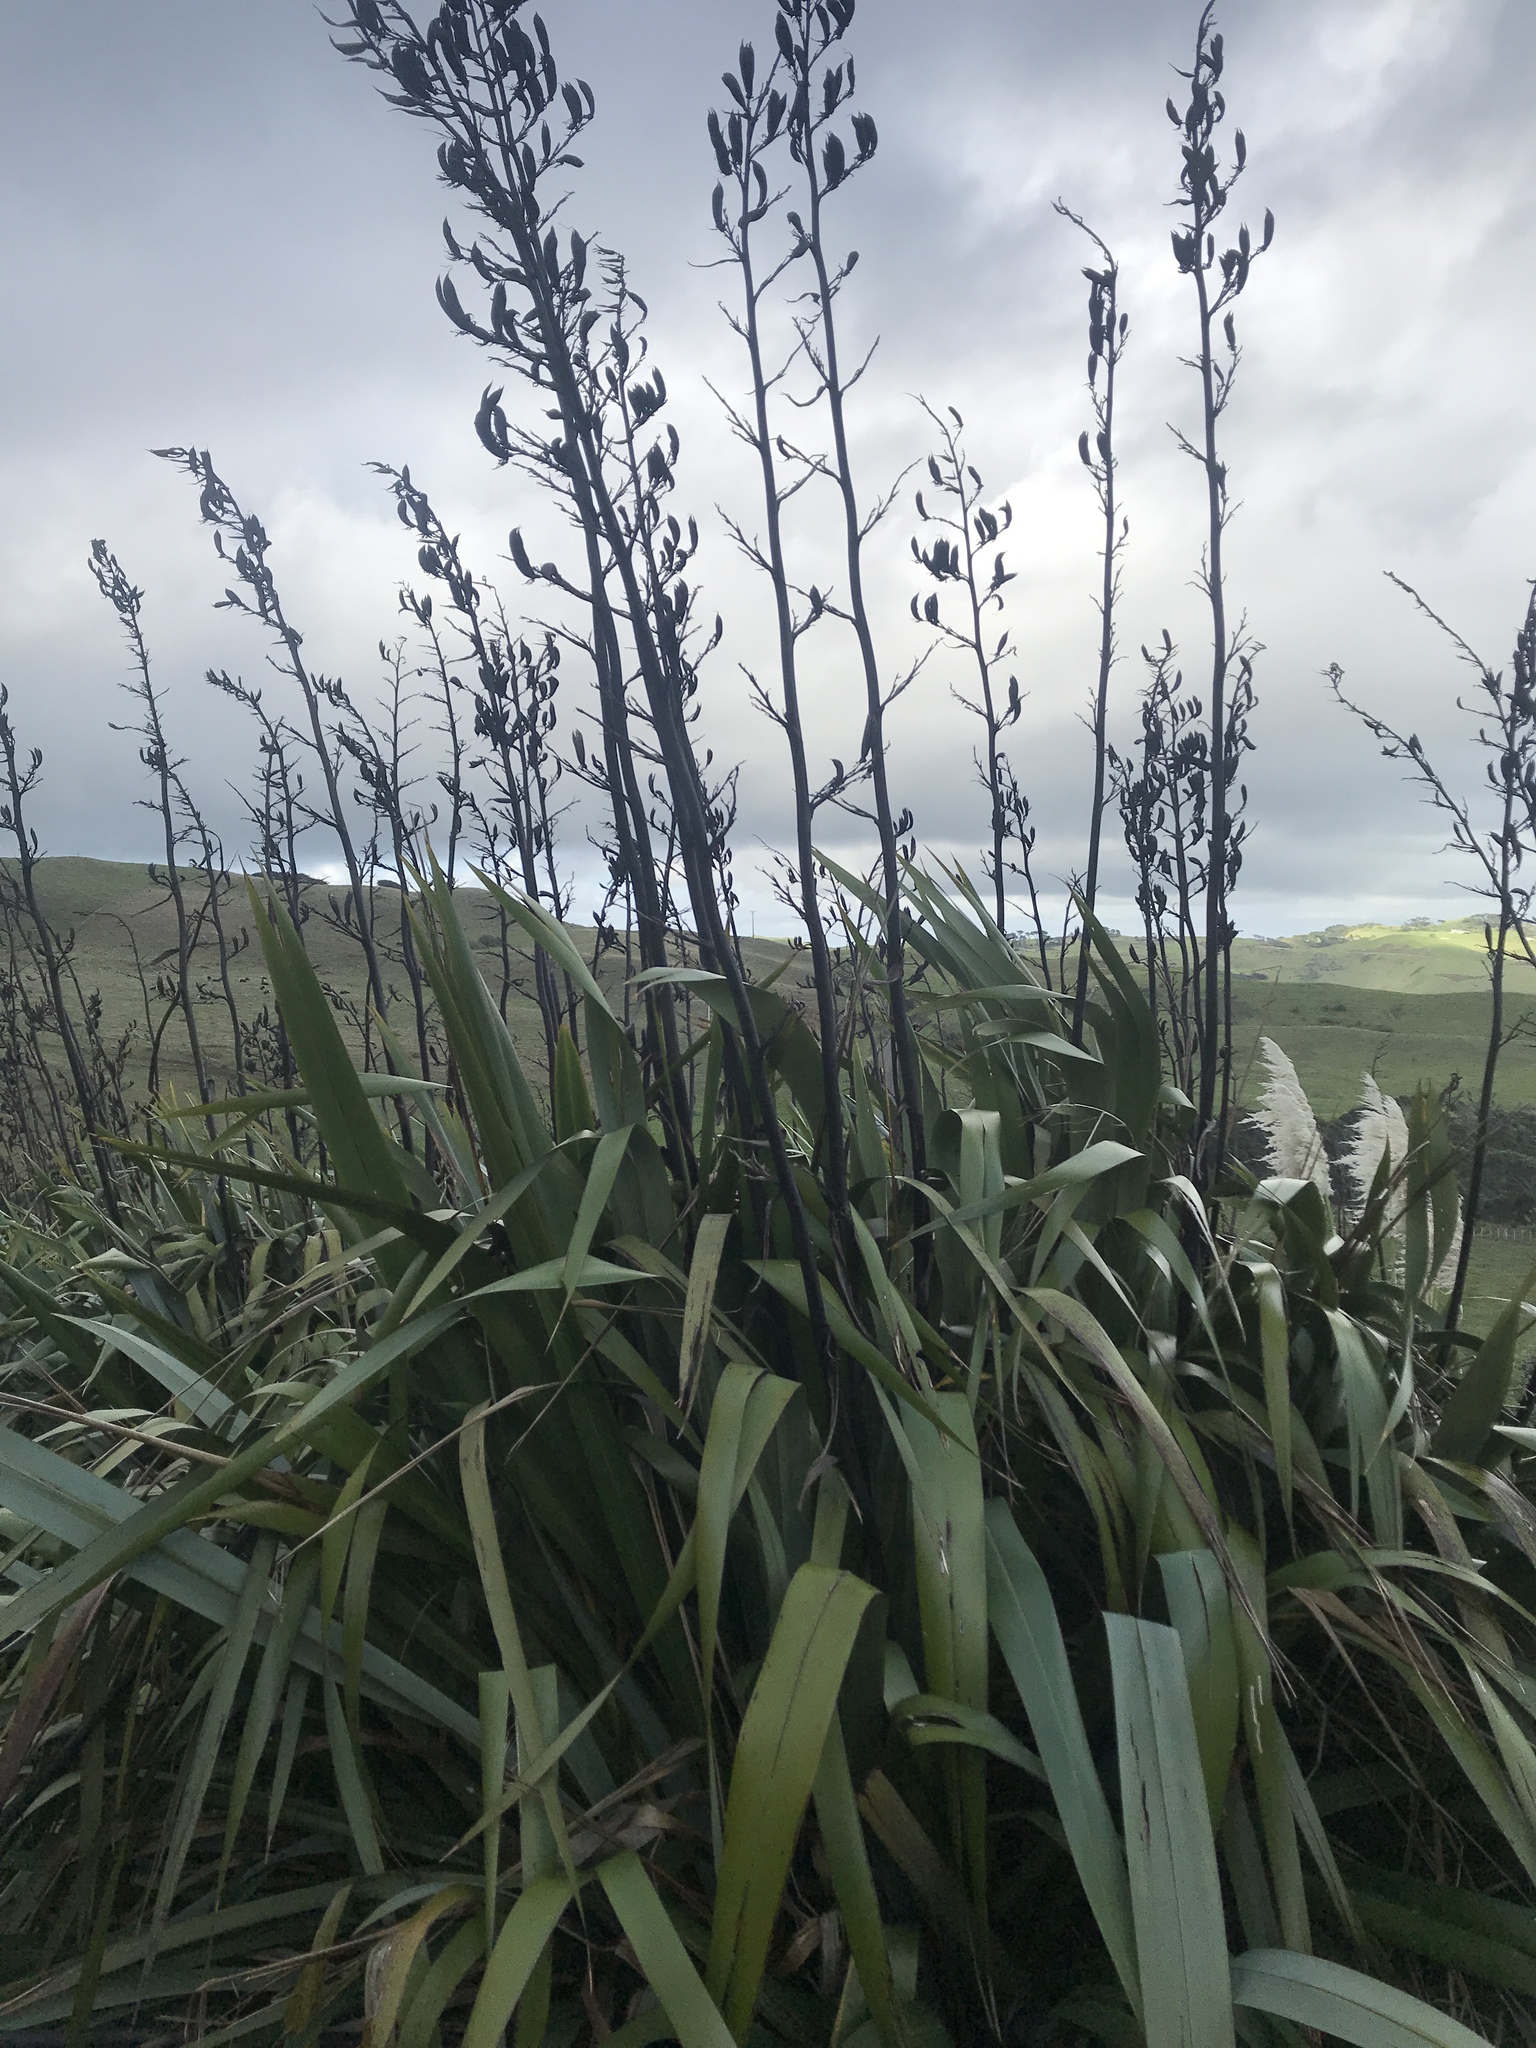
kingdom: Plantae
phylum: Tracheophyta
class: Liliopsida
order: Asparagales
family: Asphodelaceae
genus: Phormium
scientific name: Phormium tenax
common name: New zealand flax
